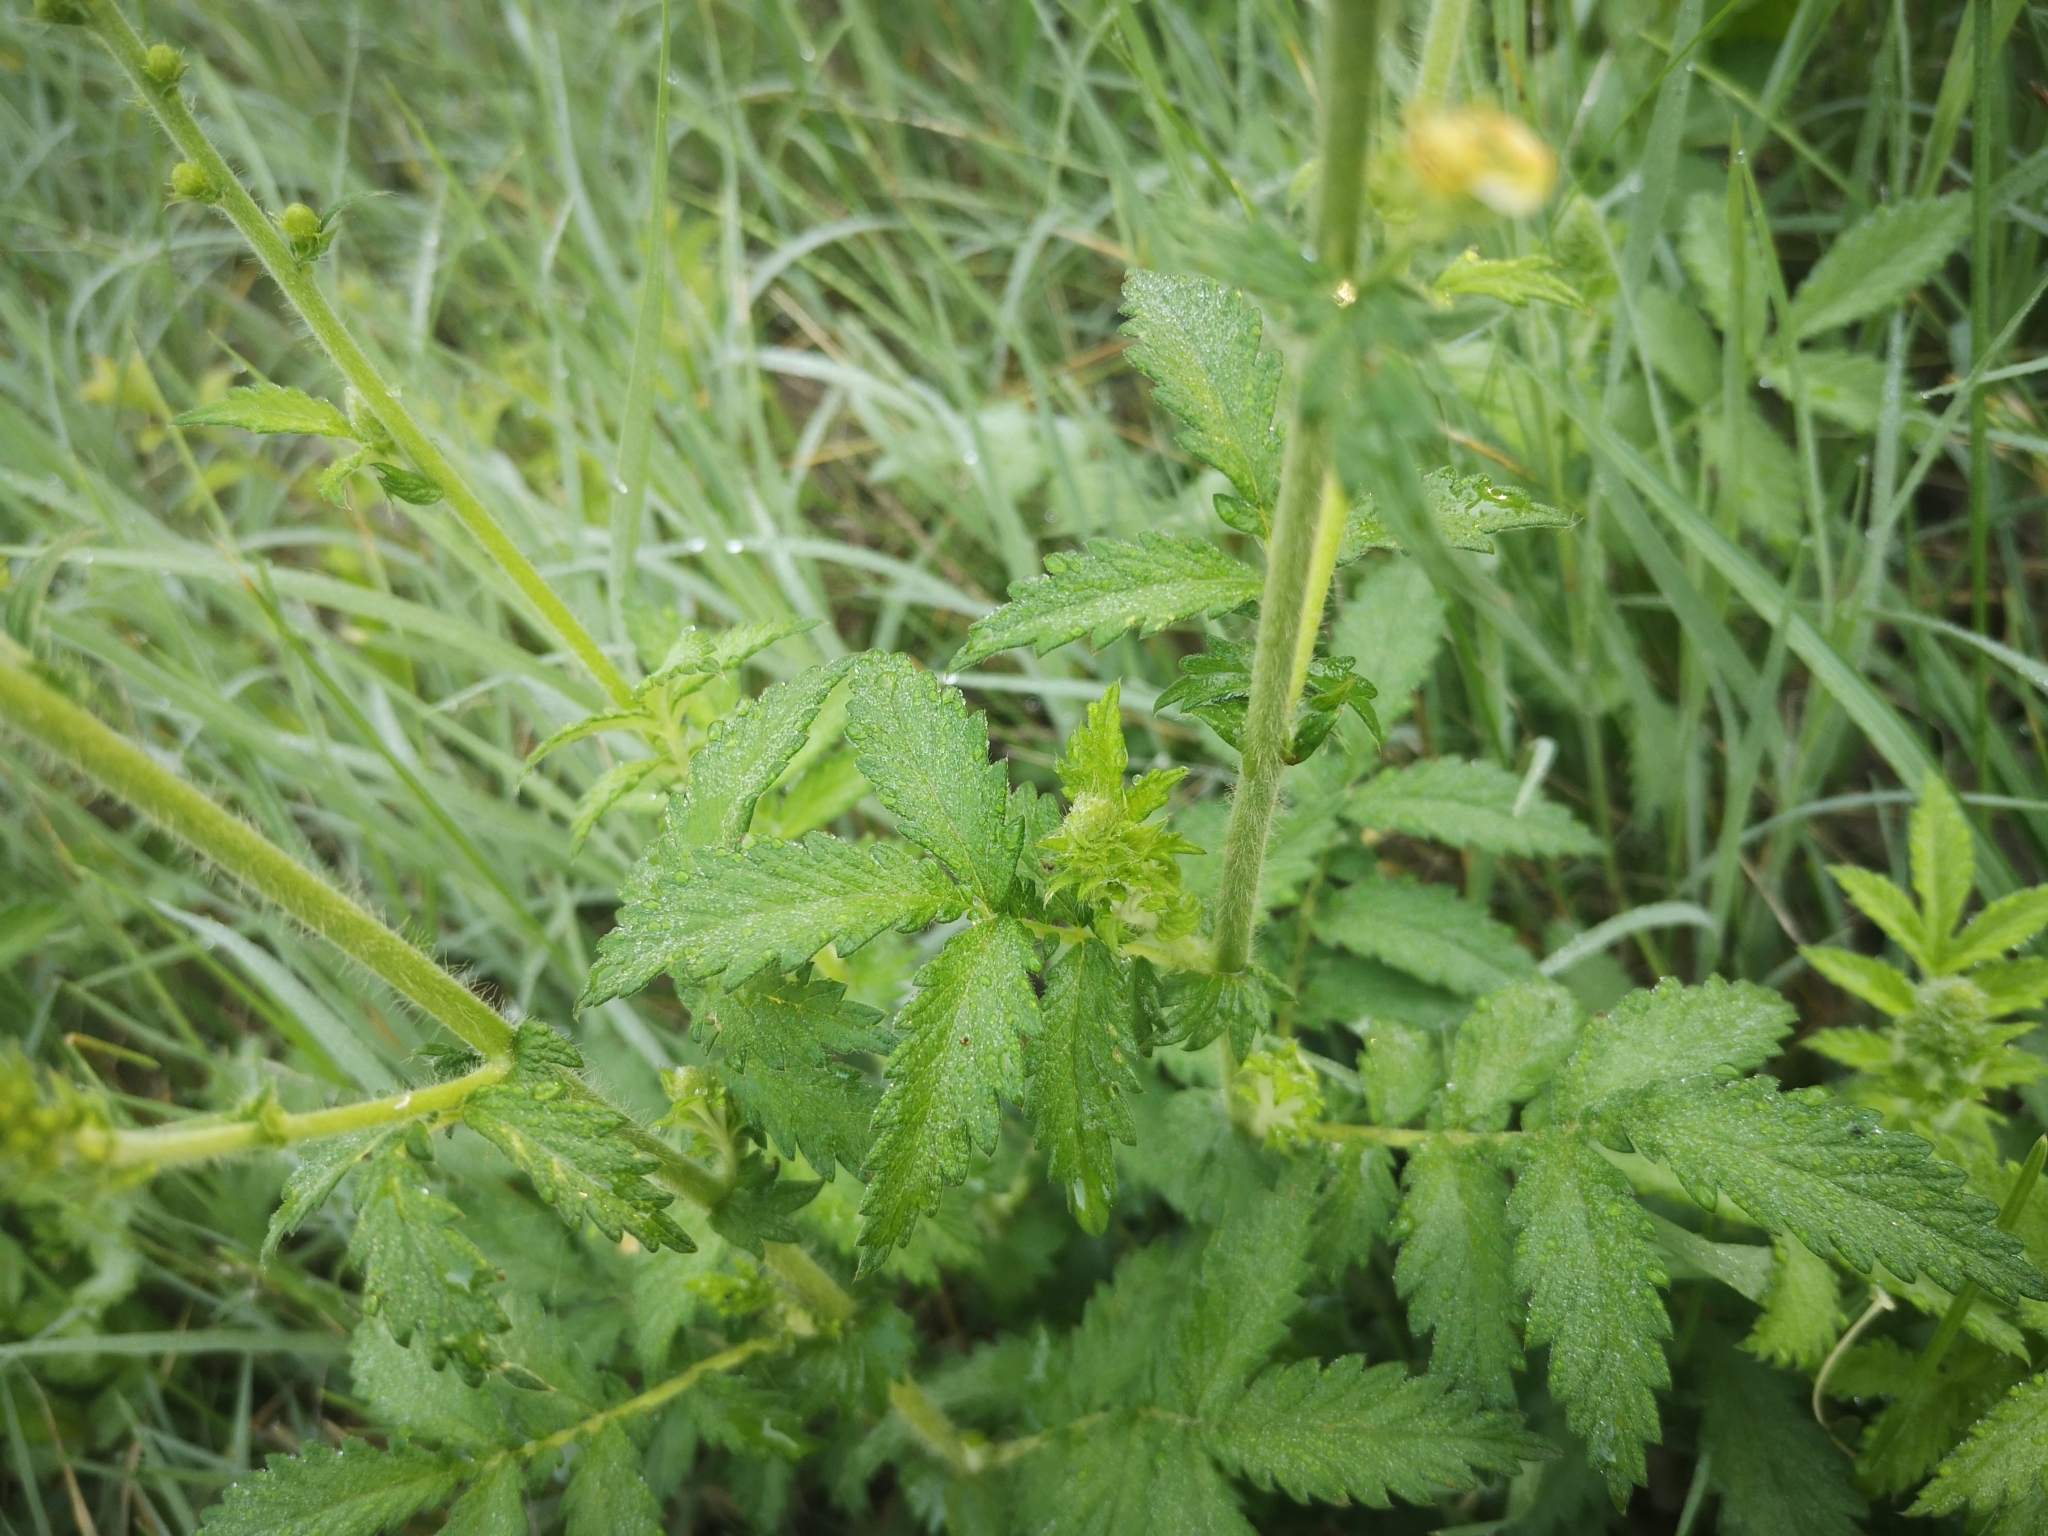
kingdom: Plantae
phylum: Tracheophyta
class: Magnoliopsida
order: Rosales
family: Rosaceae
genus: Agrimonia
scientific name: Agrimonia eupatoria
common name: Agrimony
